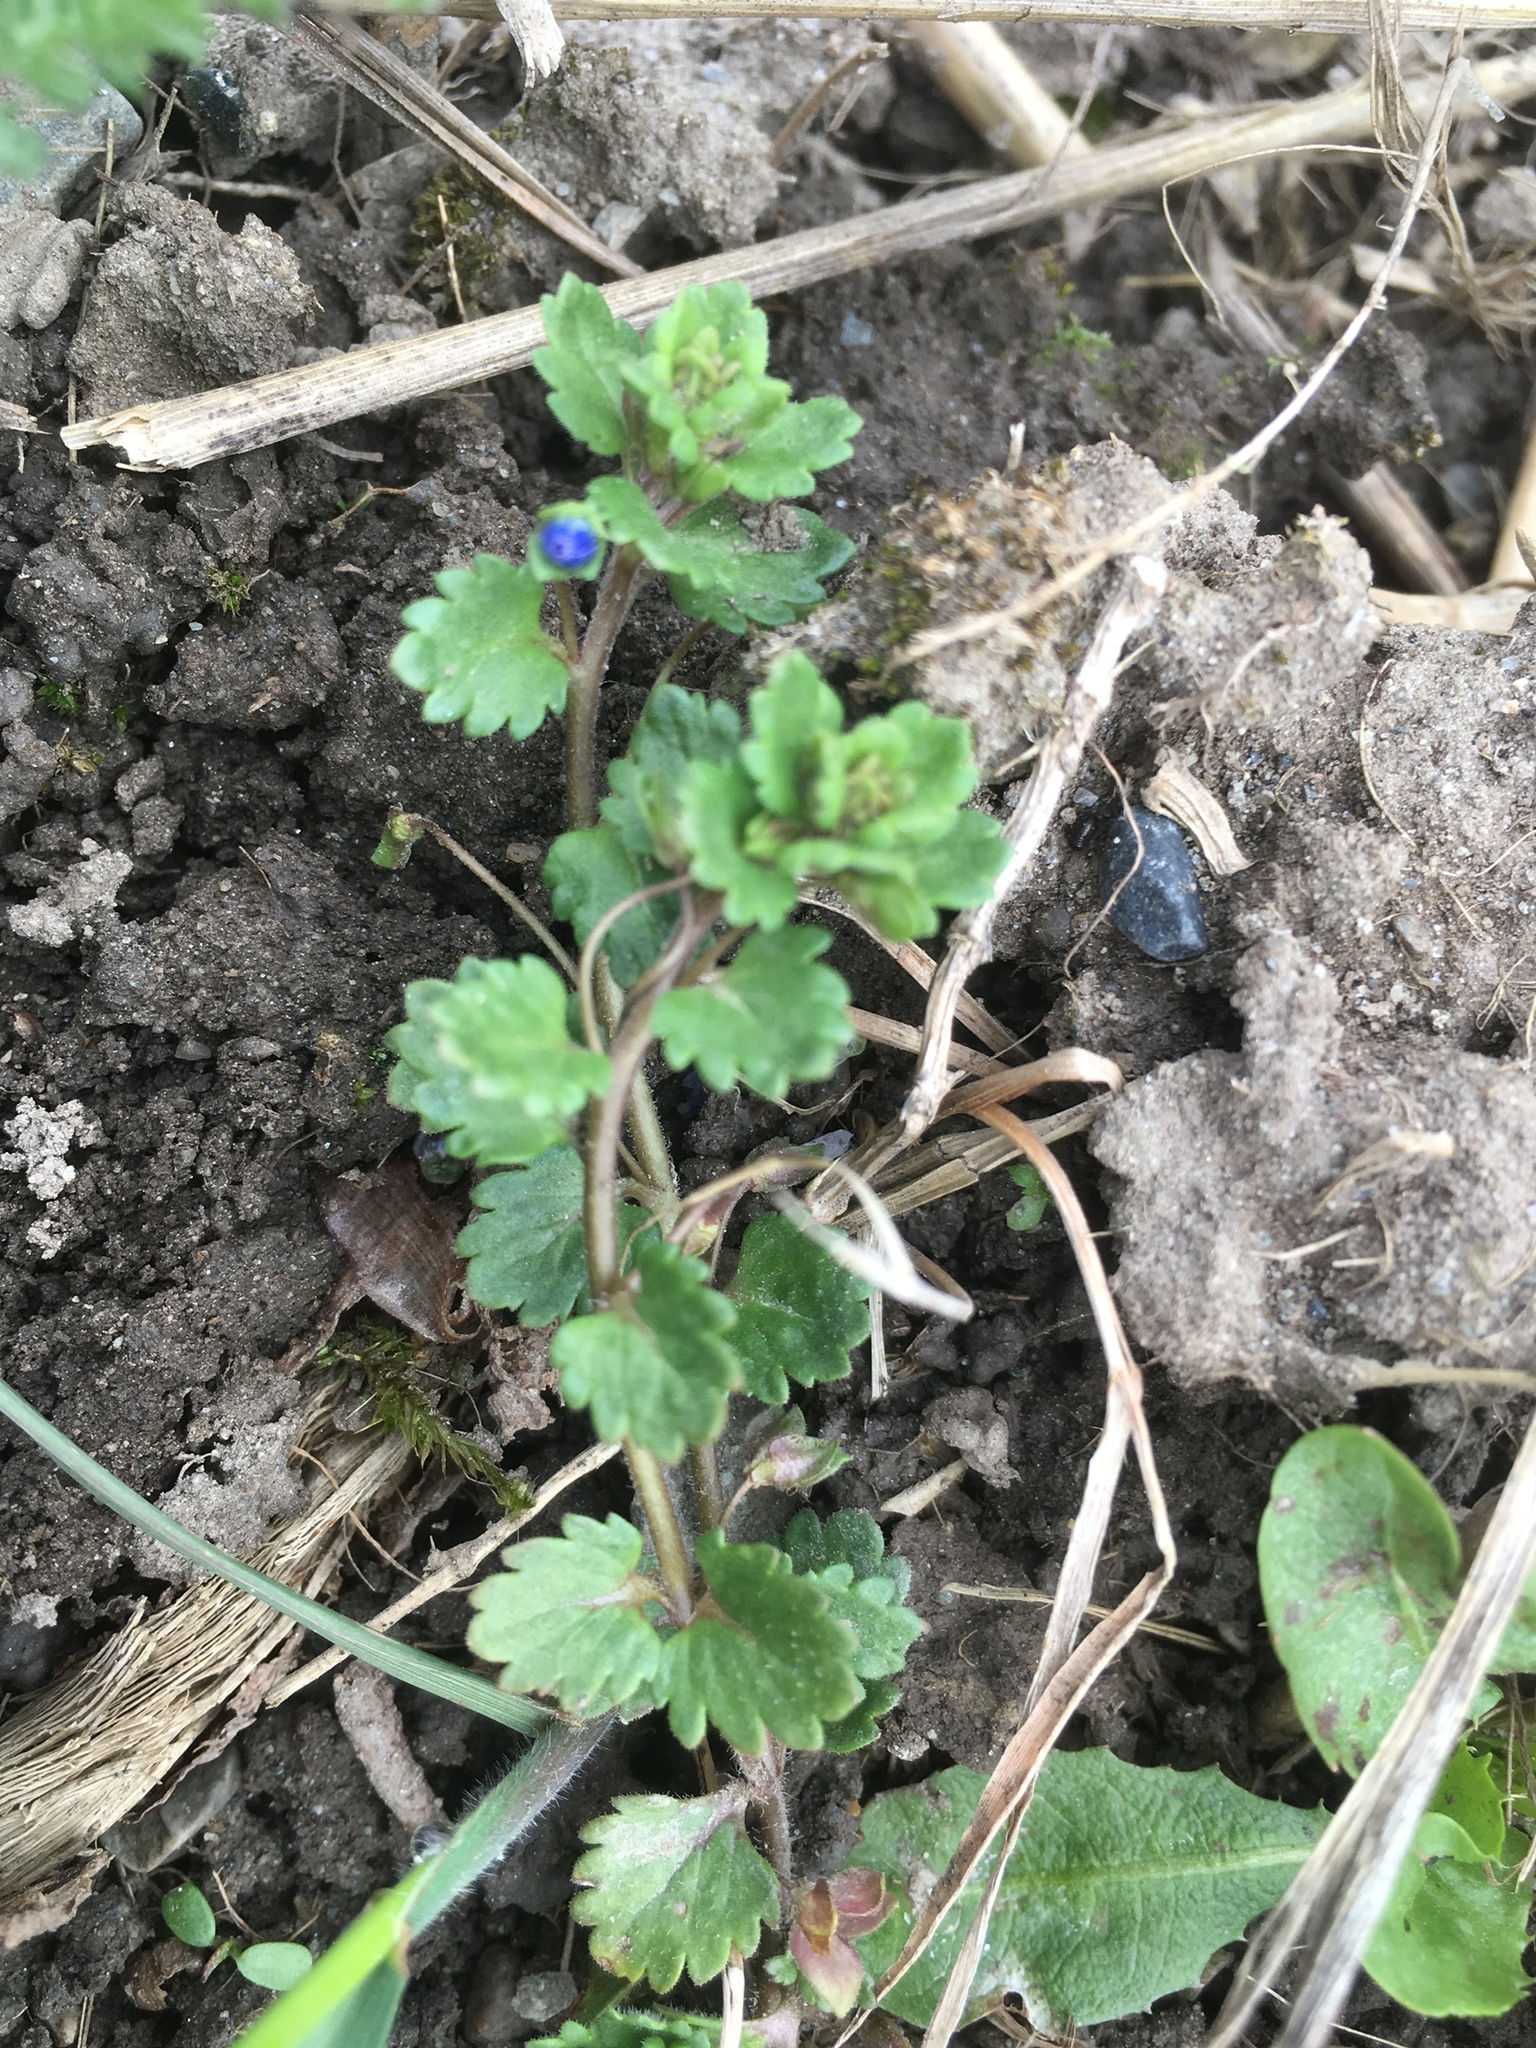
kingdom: Plantae
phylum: Tracheophyta
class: Magnoliopsida
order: Lamiales
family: Plantaginaceae
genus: Veronica
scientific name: Veronica polita
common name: Grey field-speedwell
